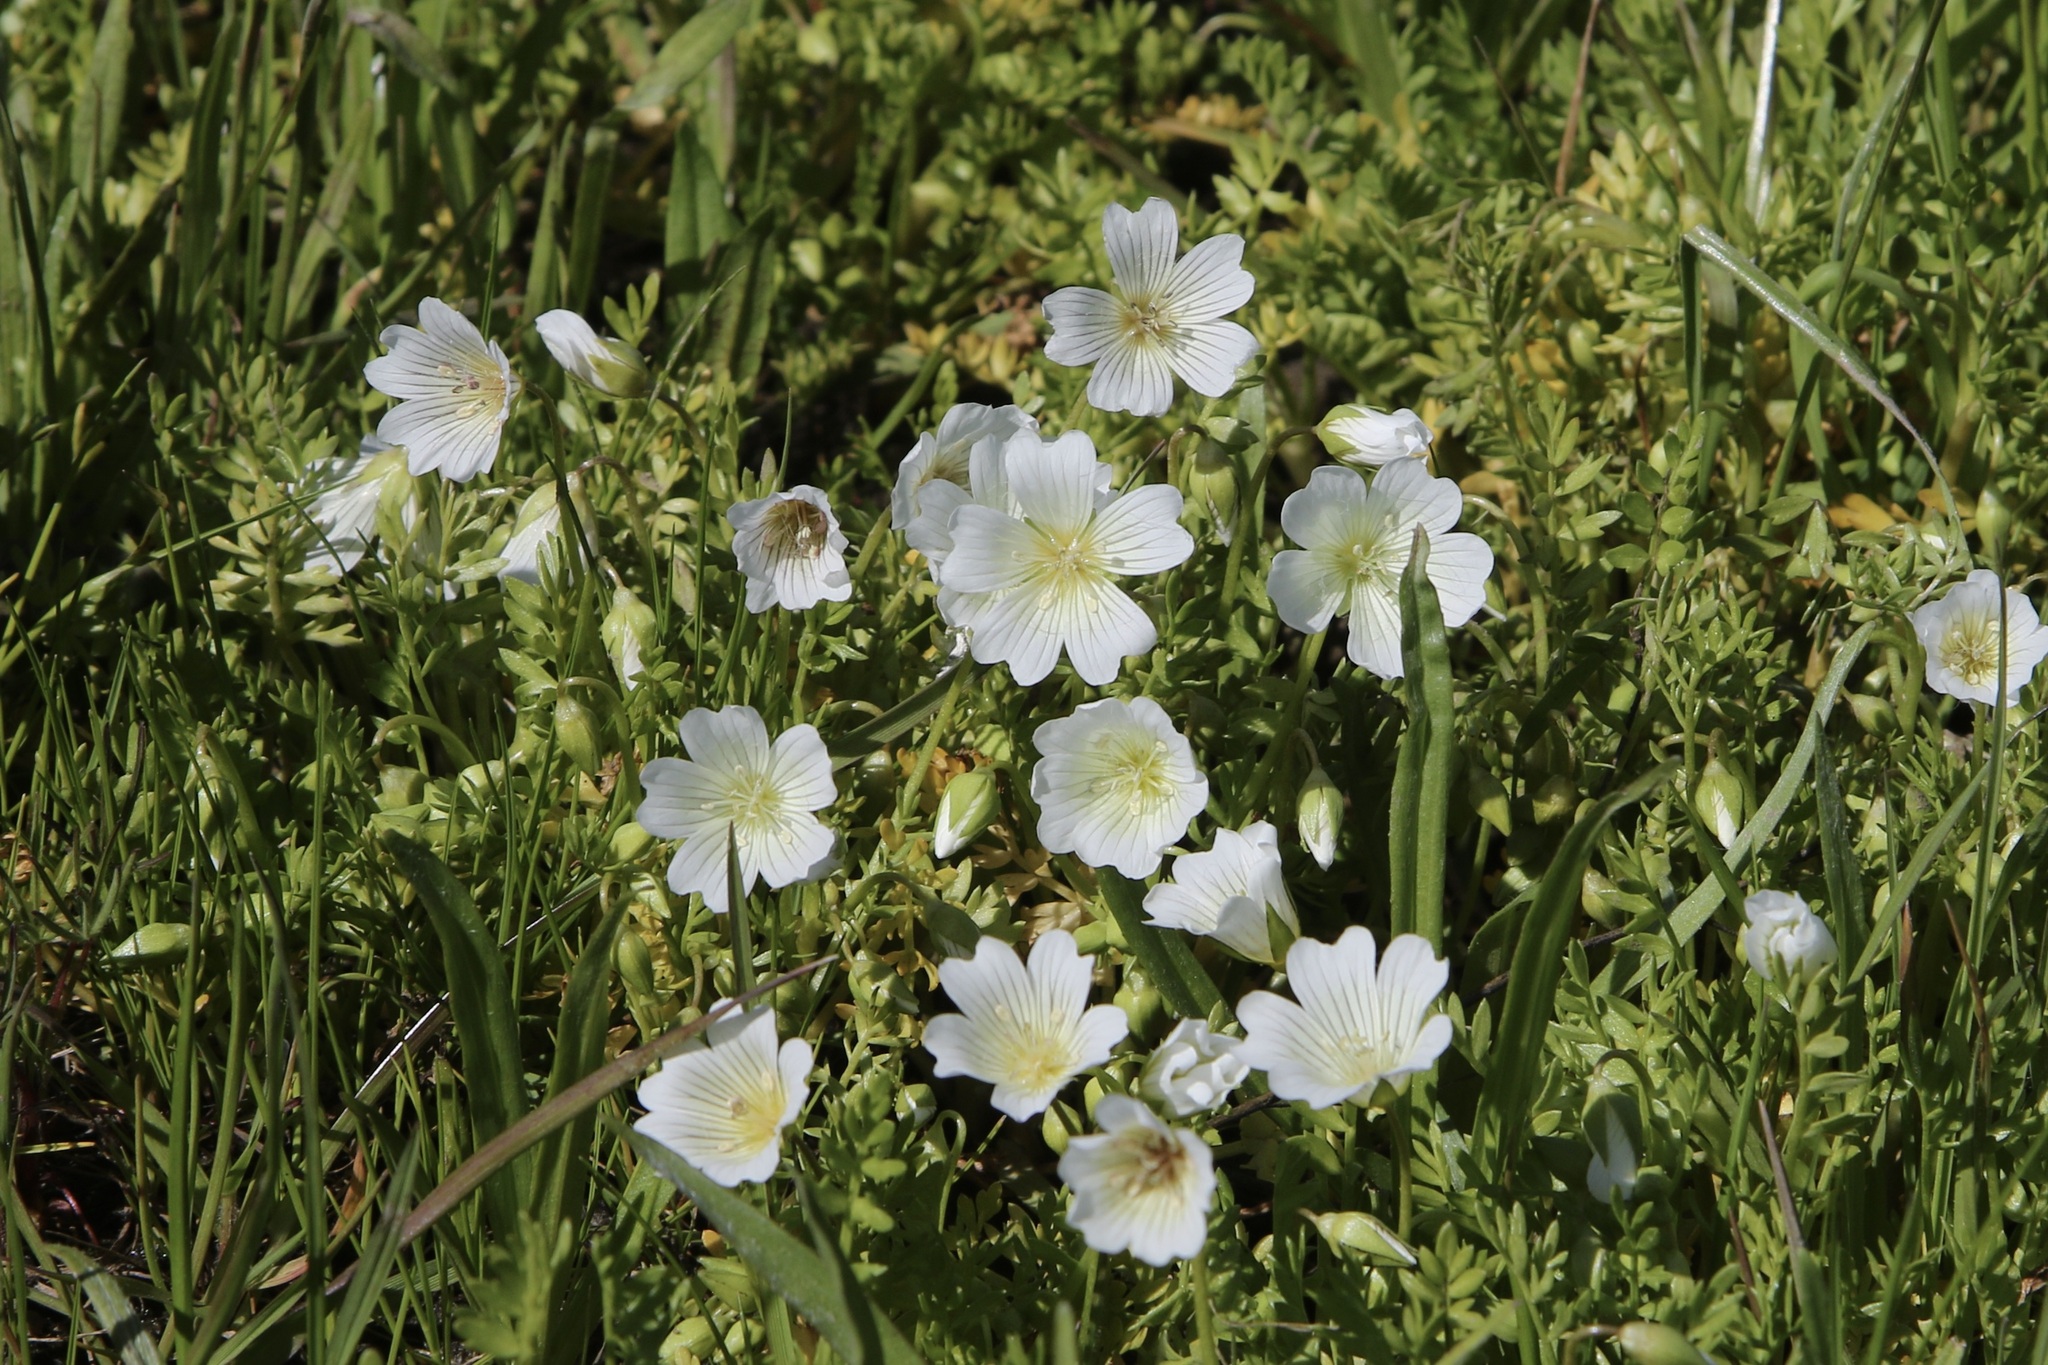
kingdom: Plantae
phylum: Tracheophyta
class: Magnoliopsida
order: Brassicales
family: Limnanthaceae
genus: Limnanthes
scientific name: Limnanthes douglasii
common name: Meadow-foam
